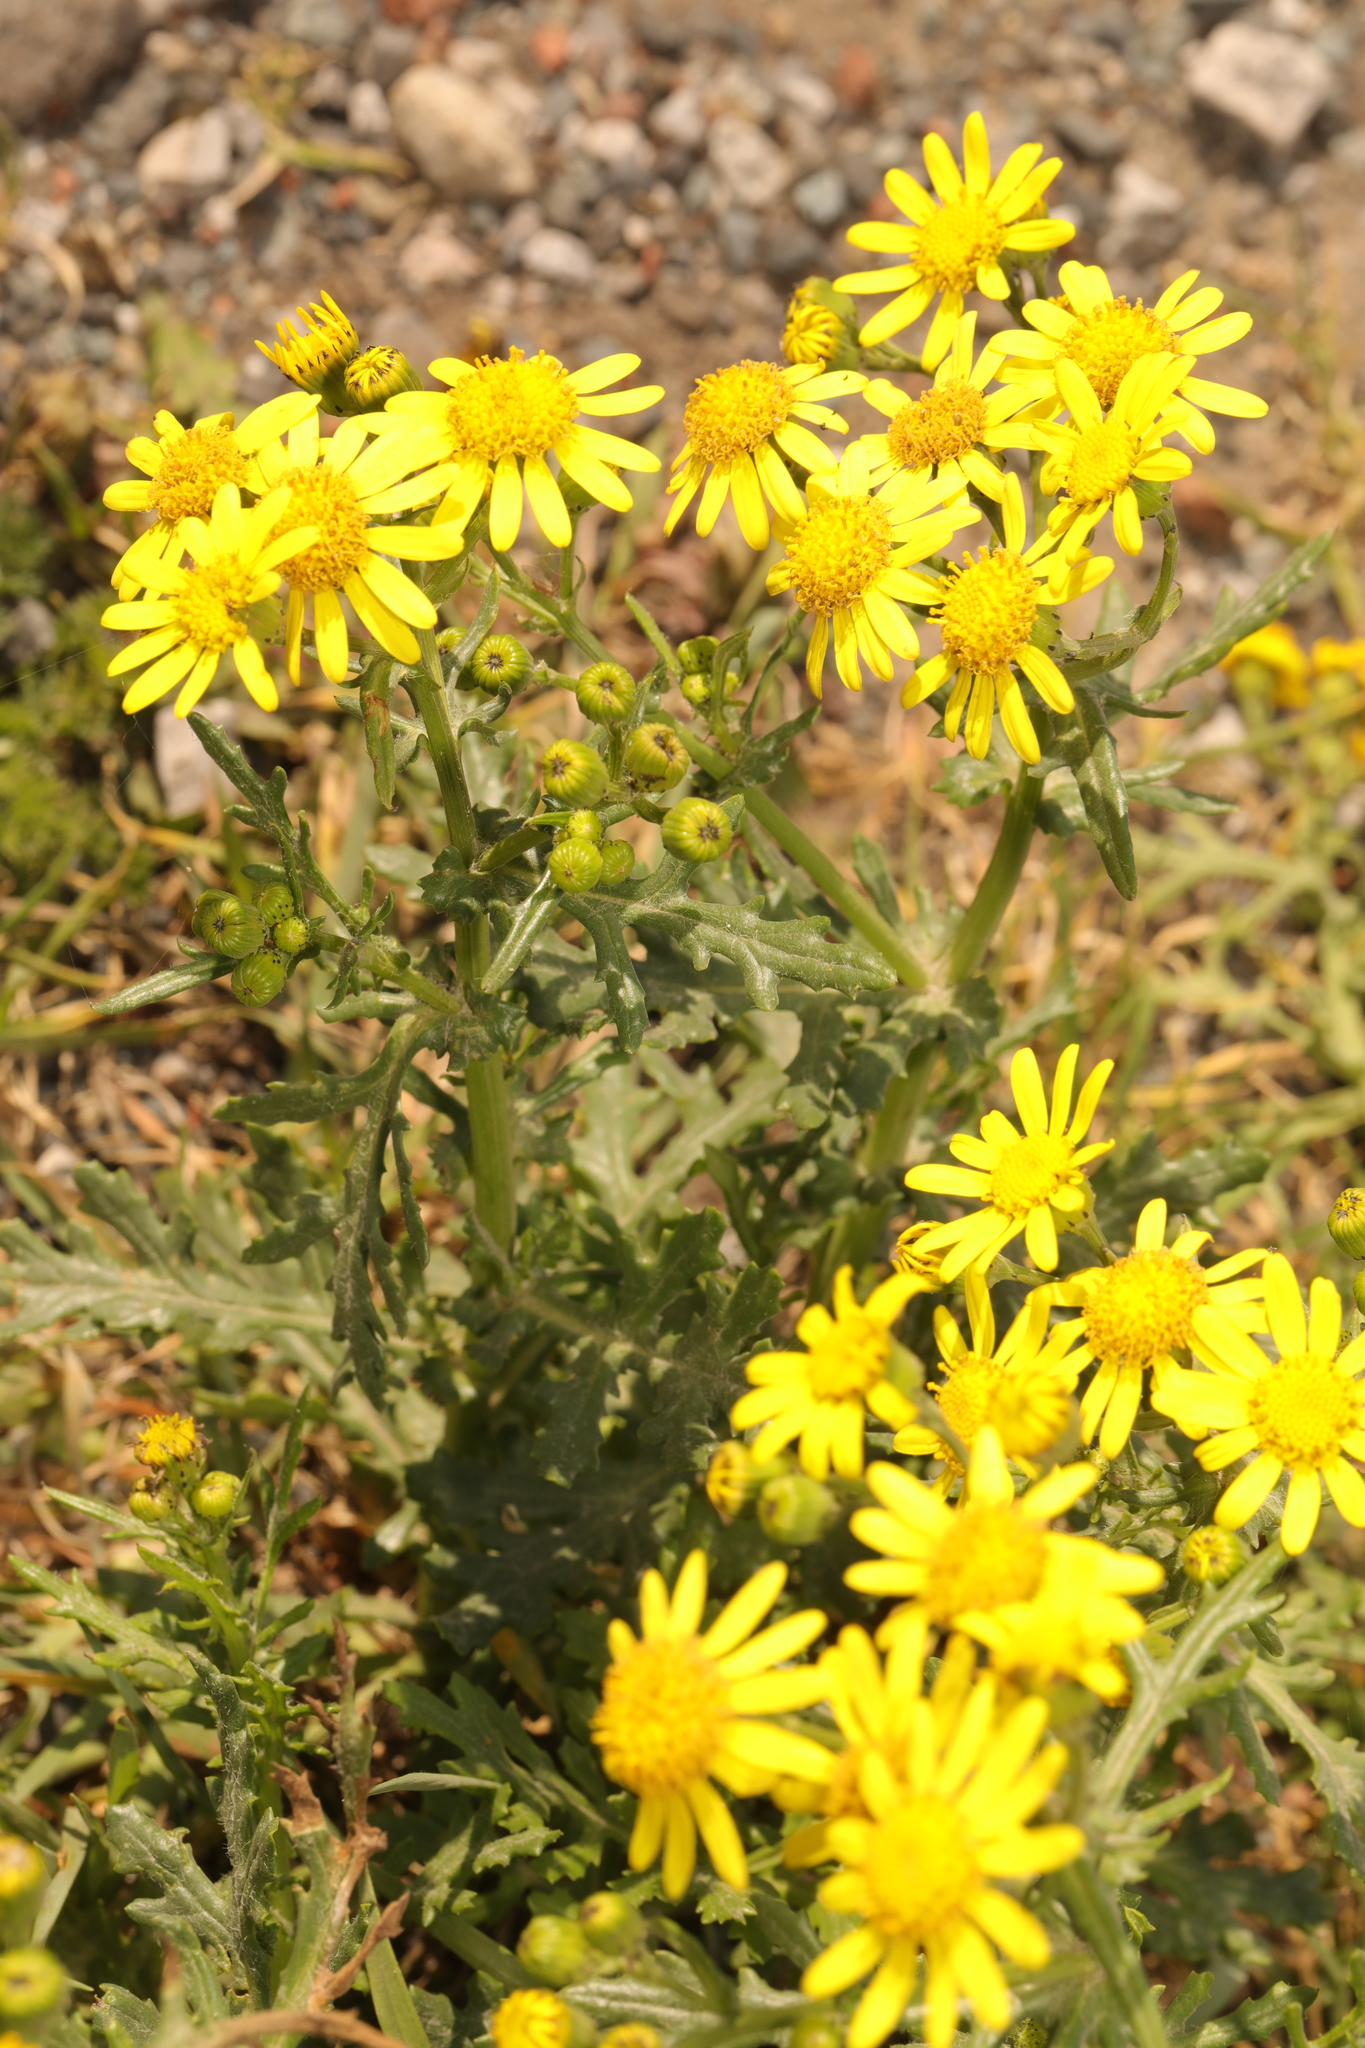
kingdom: Plantae
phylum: Tracheophyta
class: Magnoliopsida
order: Asterales
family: Asteraceae
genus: Senecio
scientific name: Senecio squalidus
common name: Oxford ragwort
